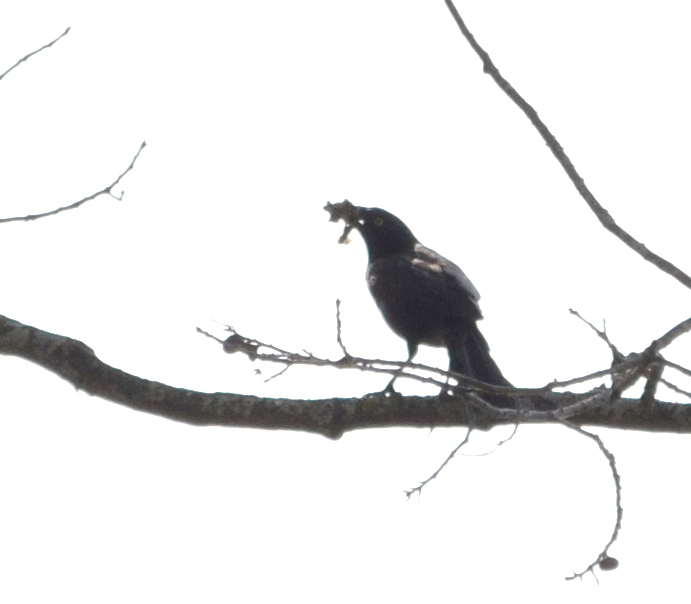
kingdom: Animalia
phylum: Chordata
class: Aves
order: Passeriformes
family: Icteridae
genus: Quiscalus
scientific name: Quiscalus quiscula
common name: Common grackle
